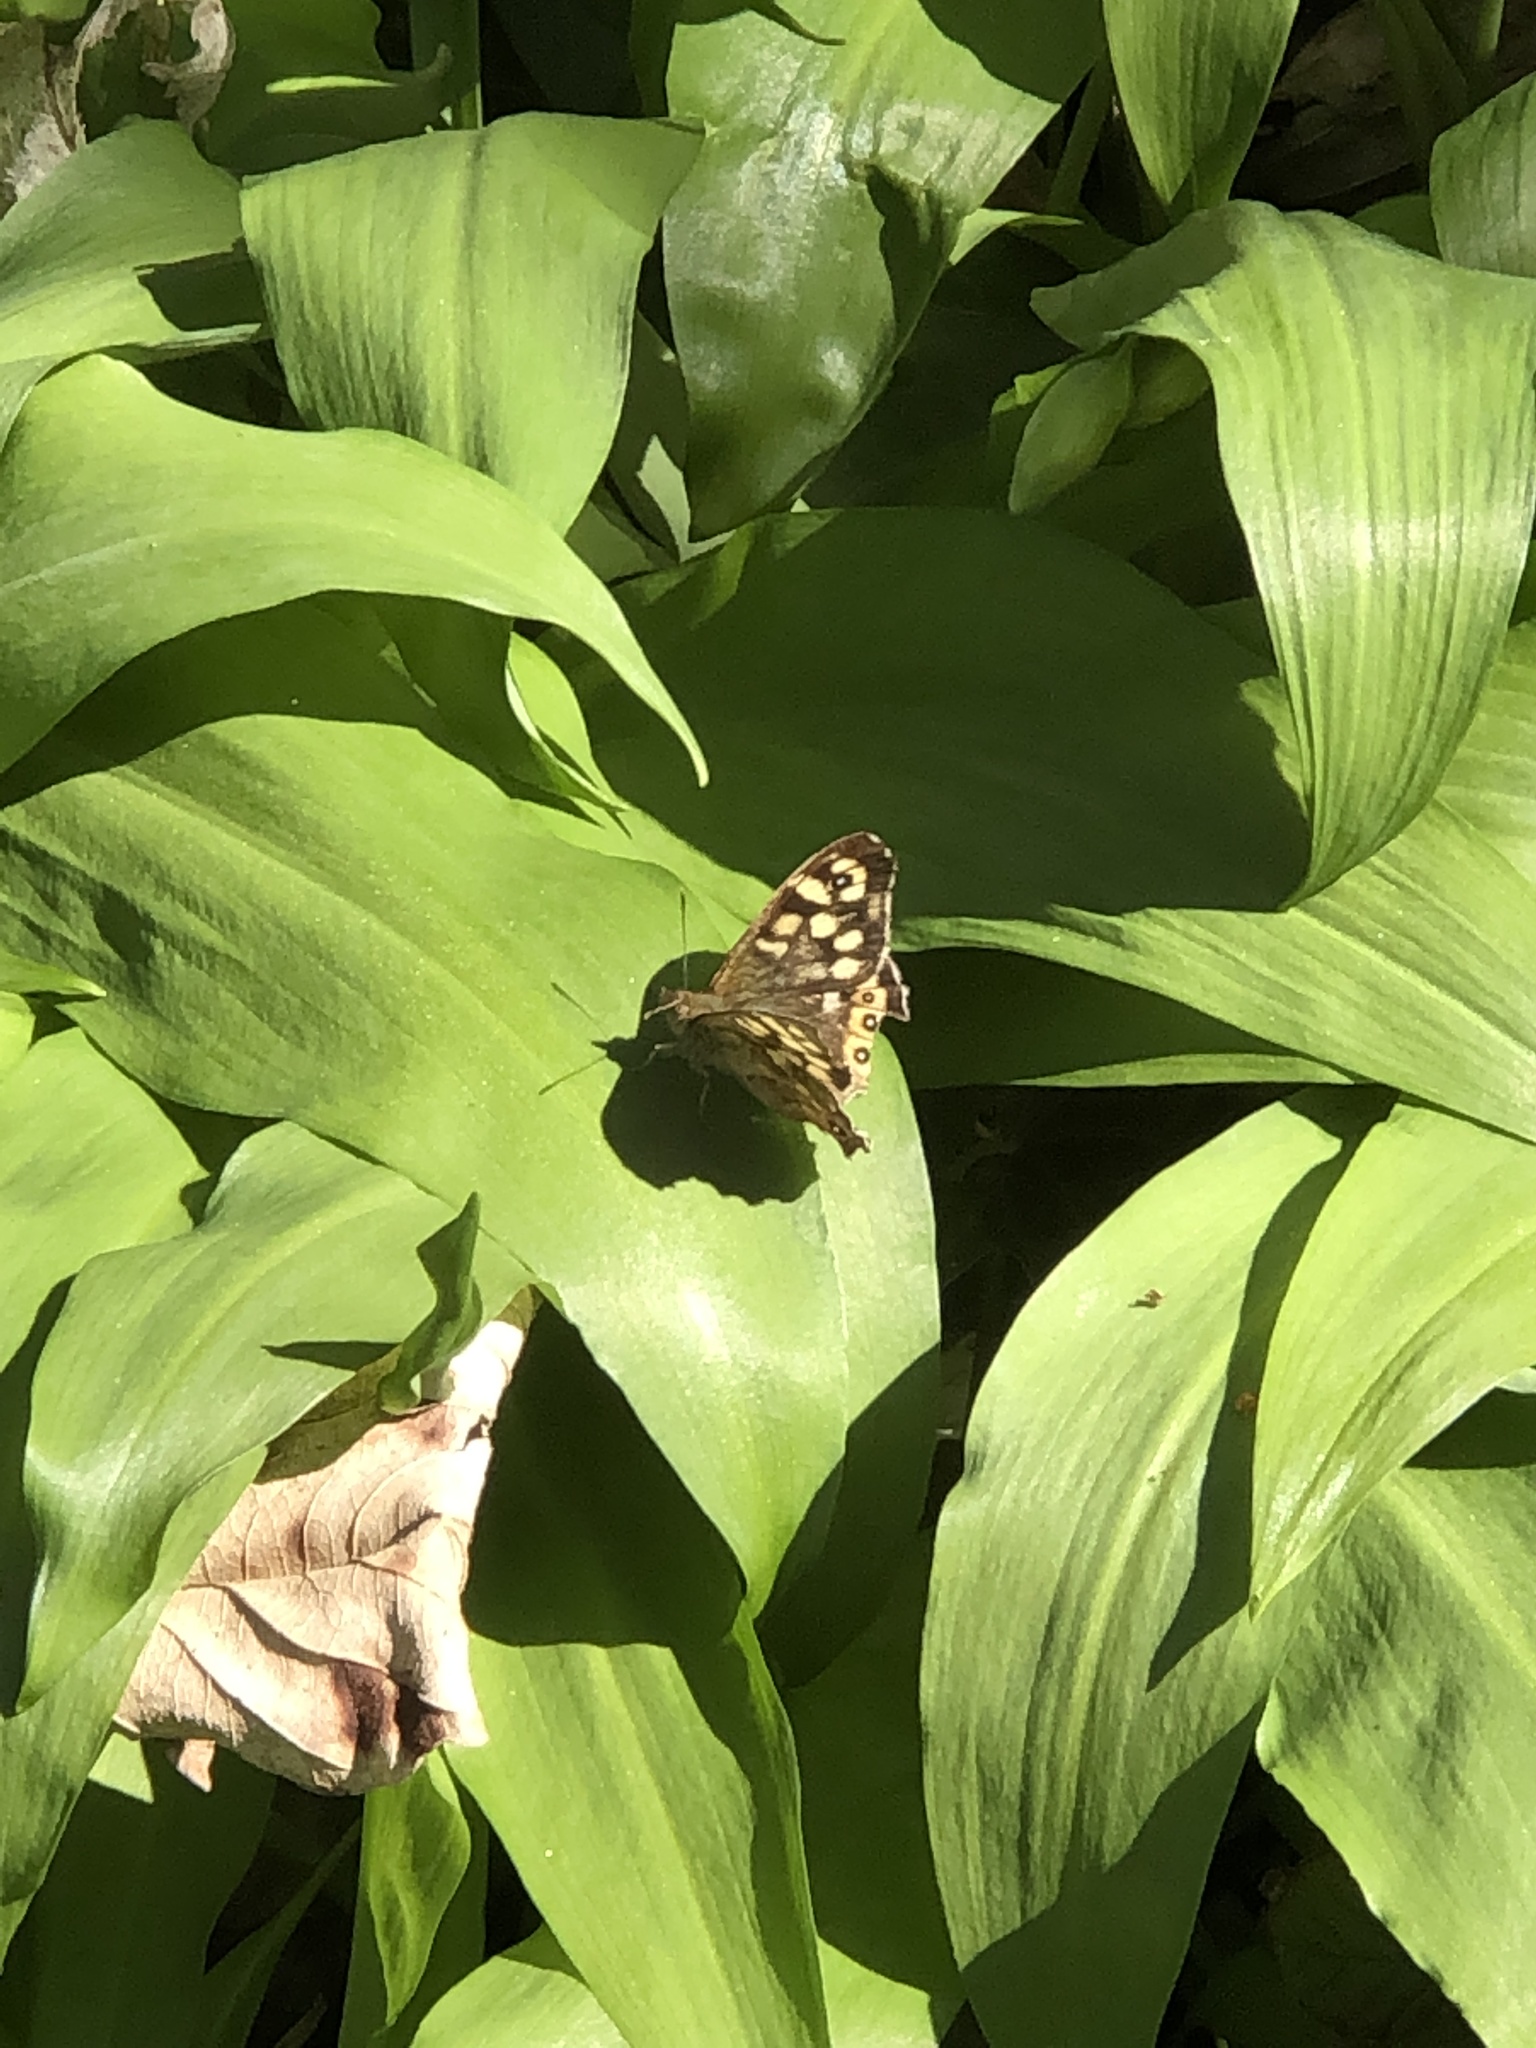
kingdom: Animalia
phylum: Arthropoda
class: Insecta
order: Lepidoptera
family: Nymphalidae
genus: Pararge
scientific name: Pararge aegeria
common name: Speckled wood
